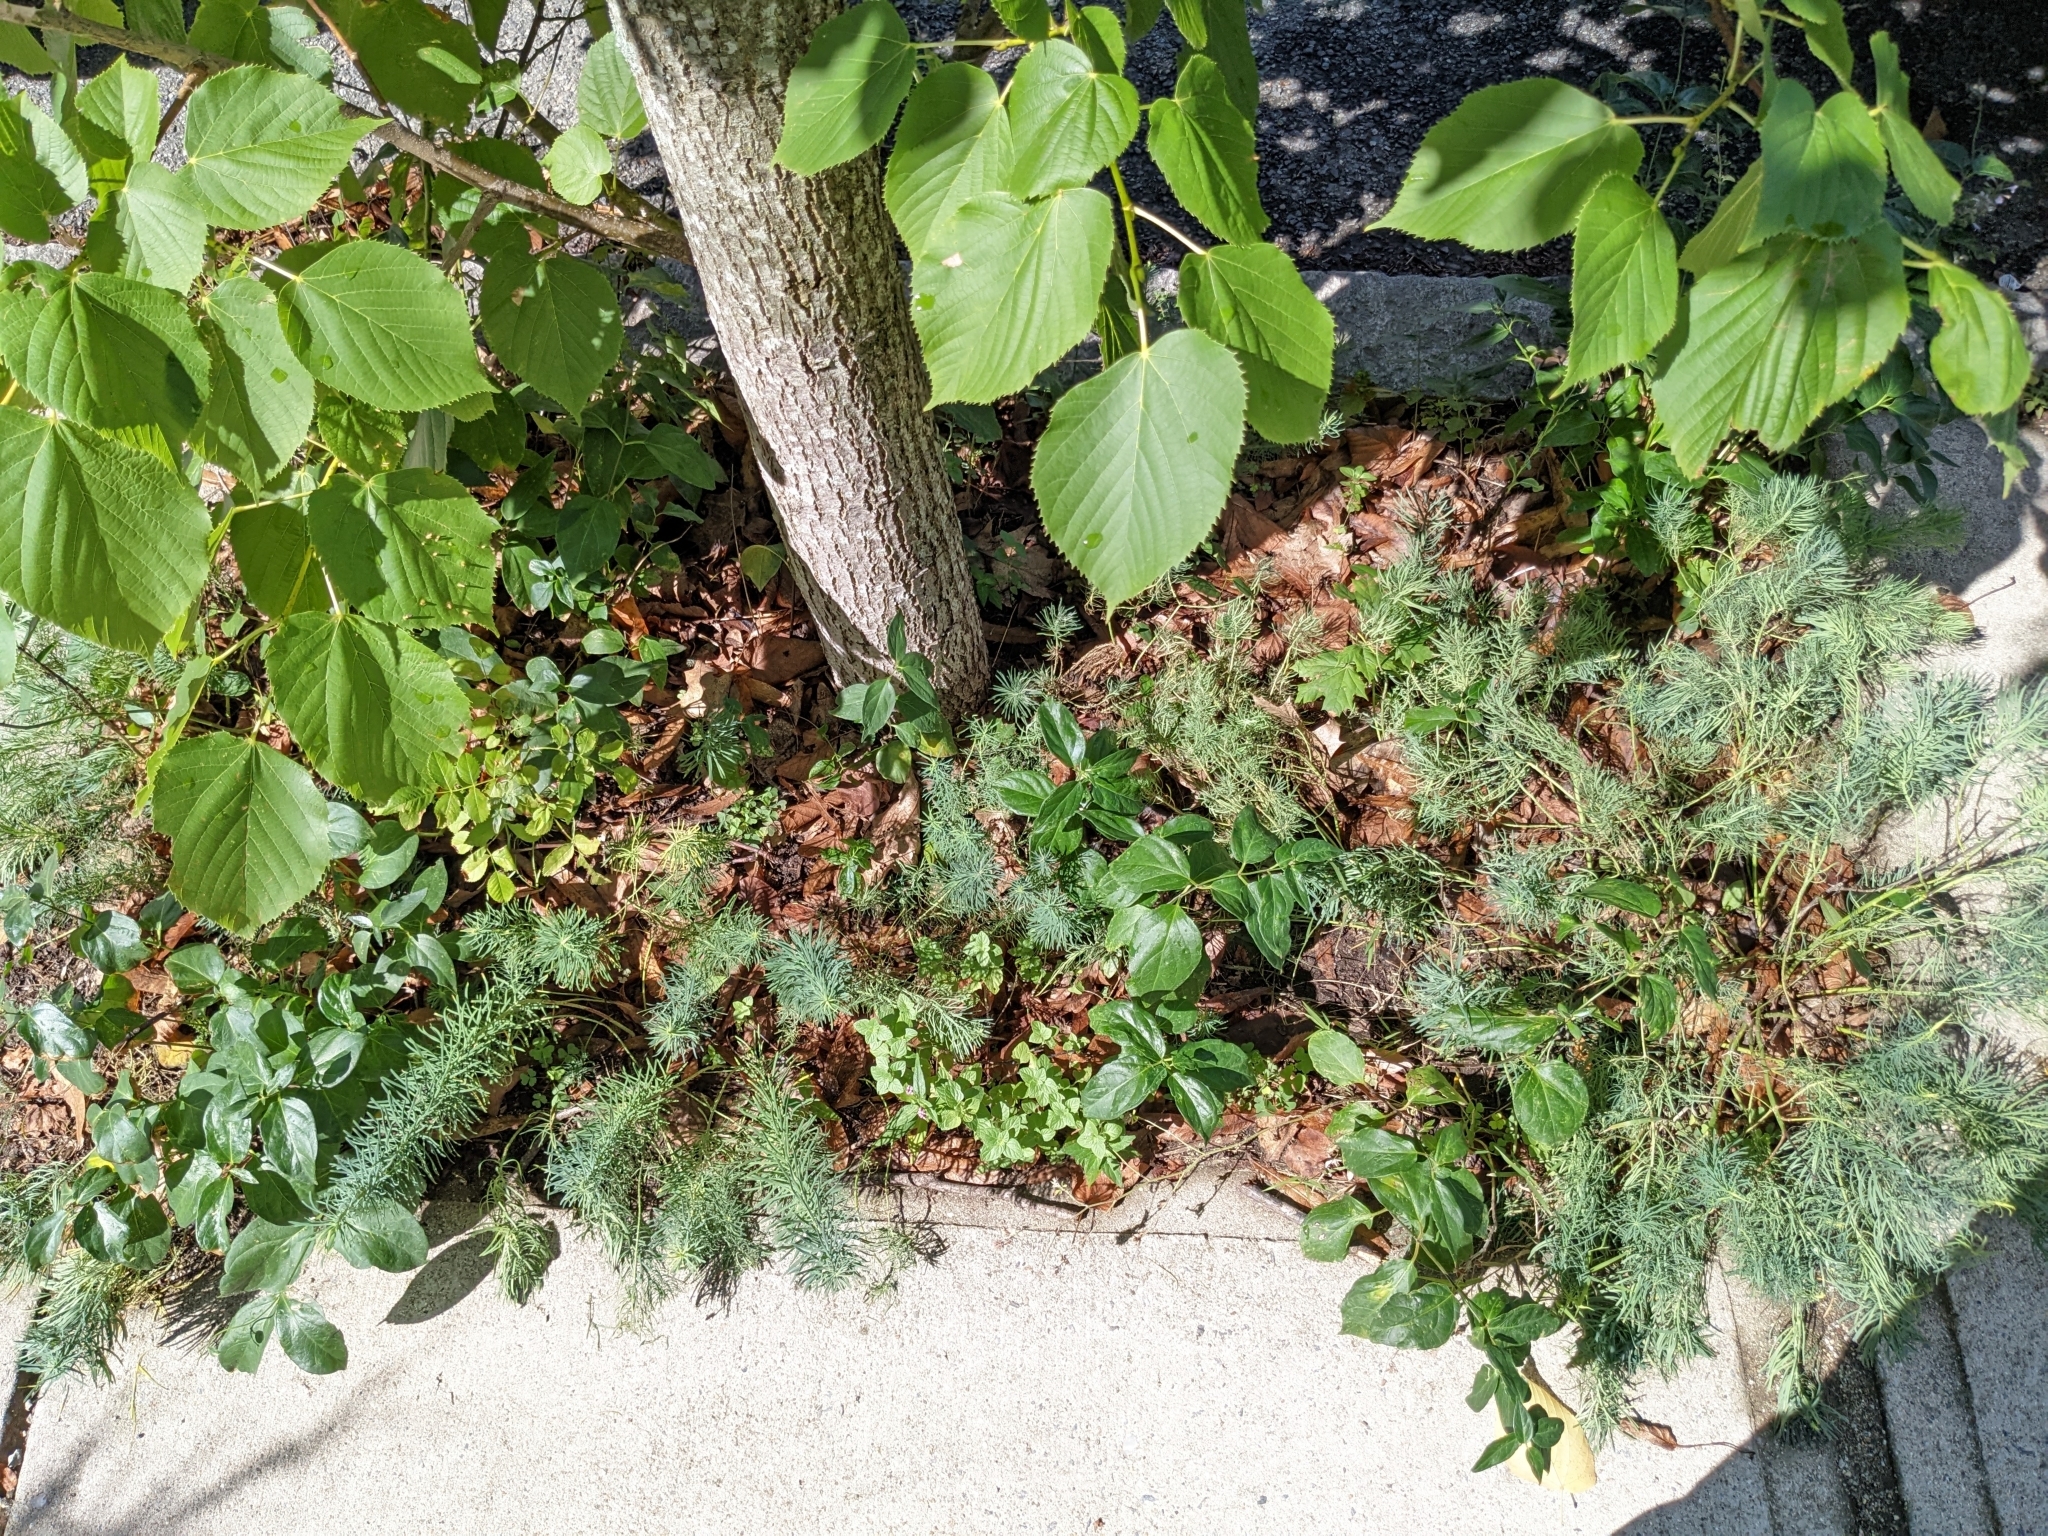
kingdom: Plantae
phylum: Tracheophyta
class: Magnoliopsida
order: Gentianales
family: Apocynaceae
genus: Vincetoxicum
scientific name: Vincetoxicum nigrum
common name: Black swallow-wort
